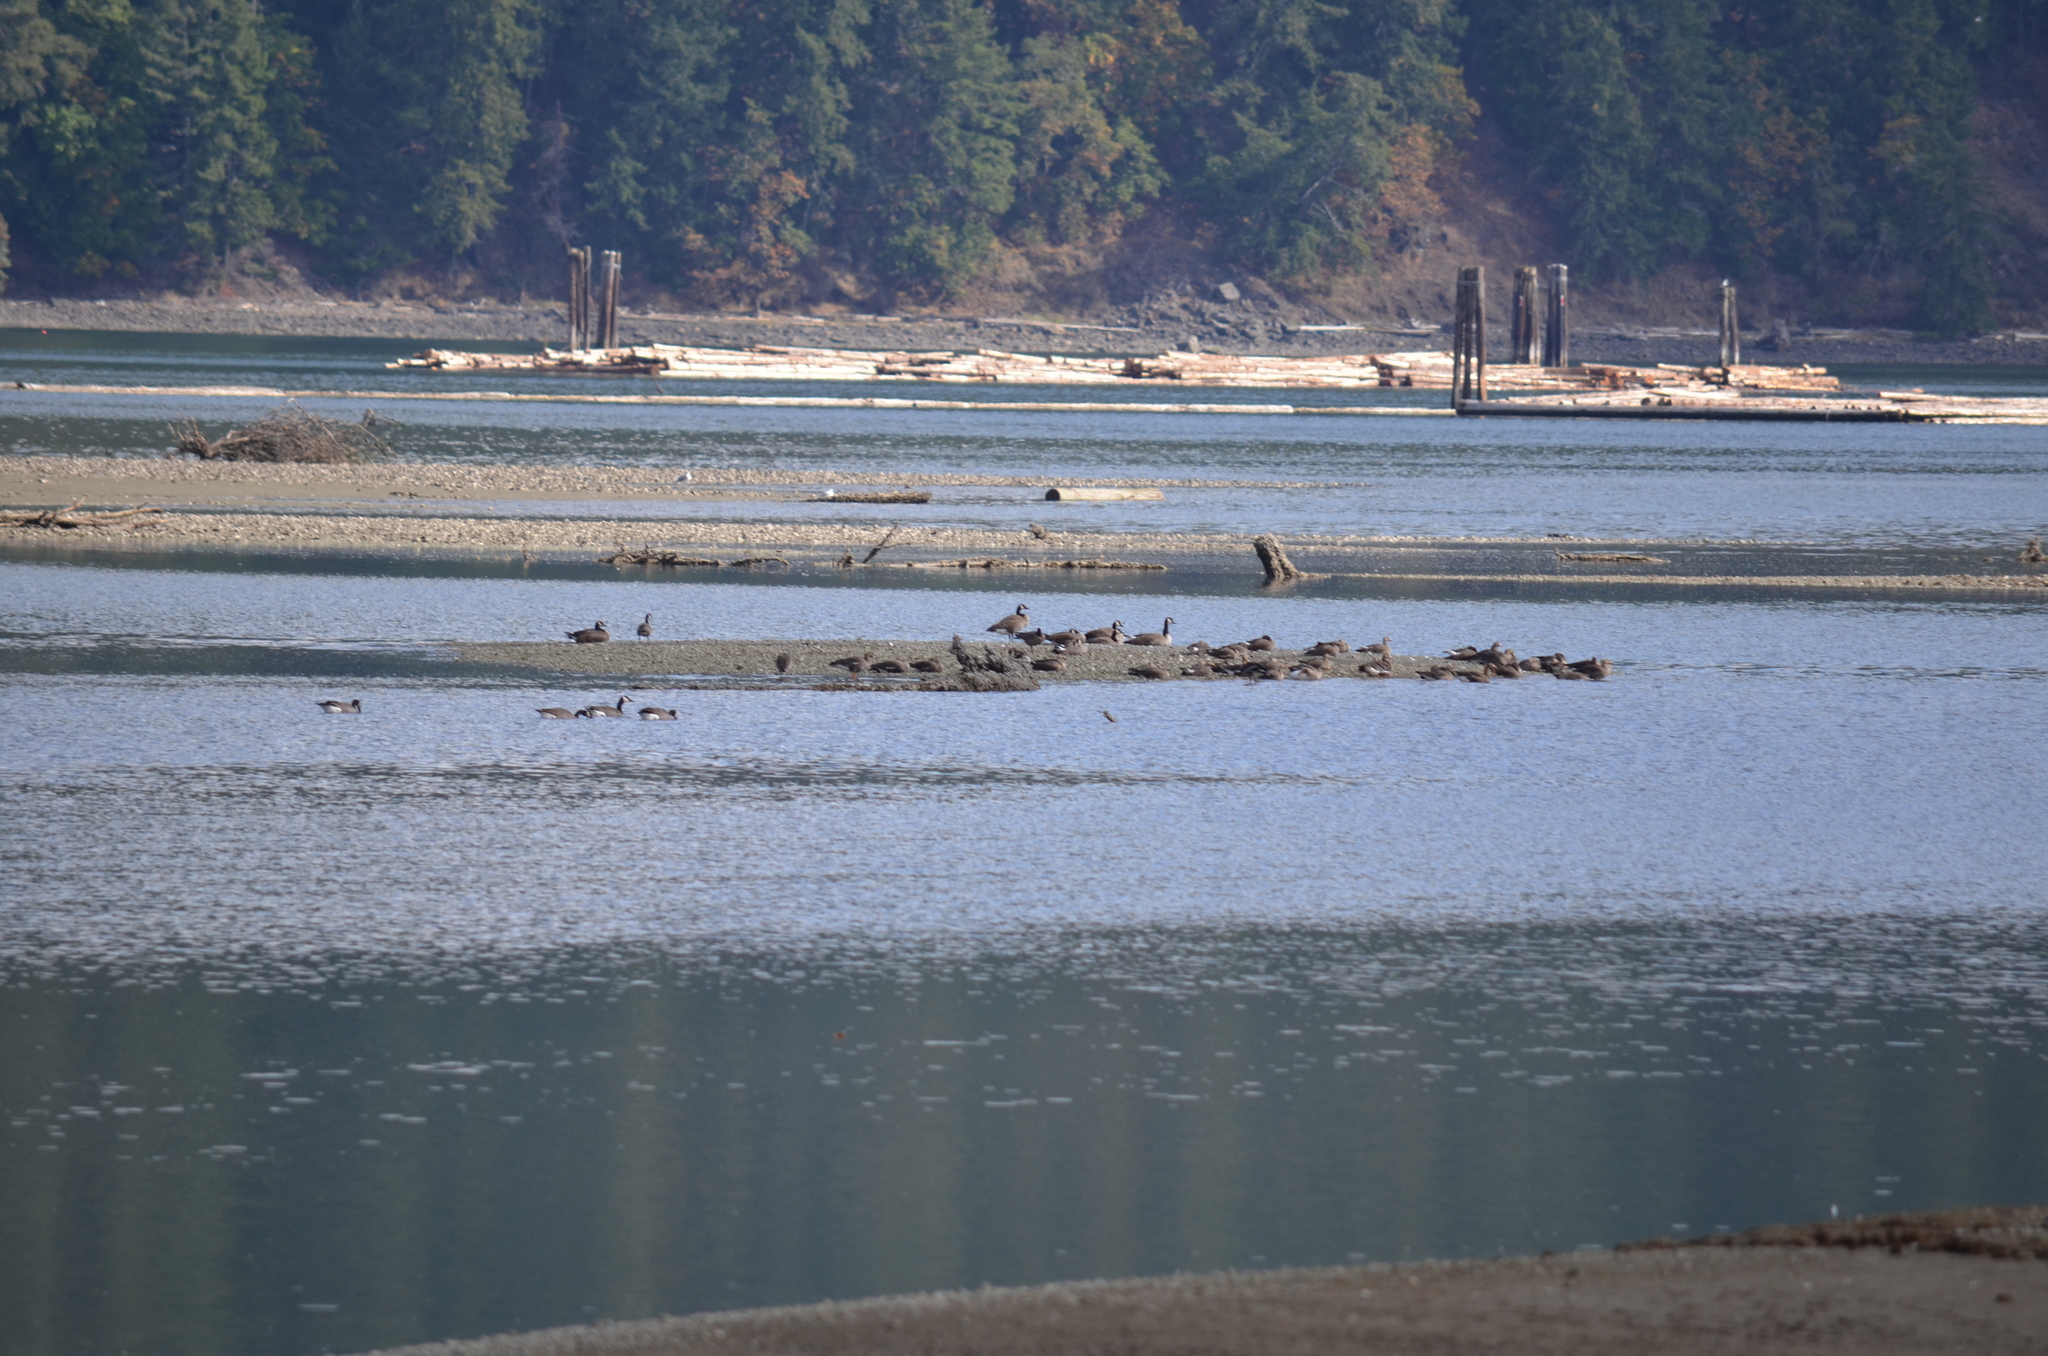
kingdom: Animalia
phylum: Chordata
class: Aves
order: Anseriformes
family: Anatidae
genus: Branta
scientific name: Branta canadensis
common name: Canada goose
